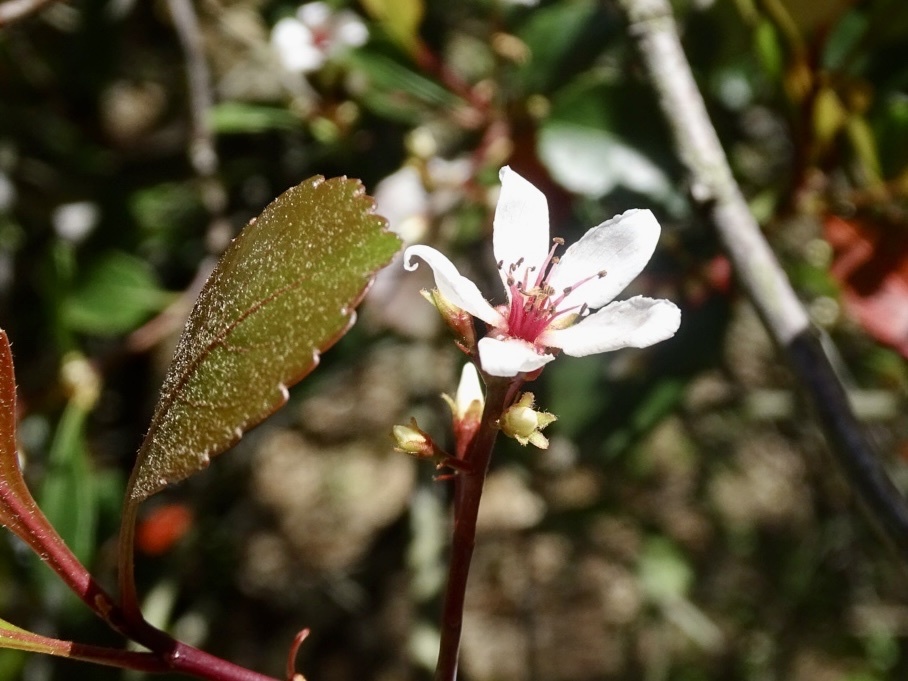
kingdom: Plantae
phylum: Tracheophyta
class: Magnoliopsida
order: Rosales
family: Rosaceae
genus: Rhaphiolepis
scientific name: Rhaphiolepis indica
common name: India-hawthorn
